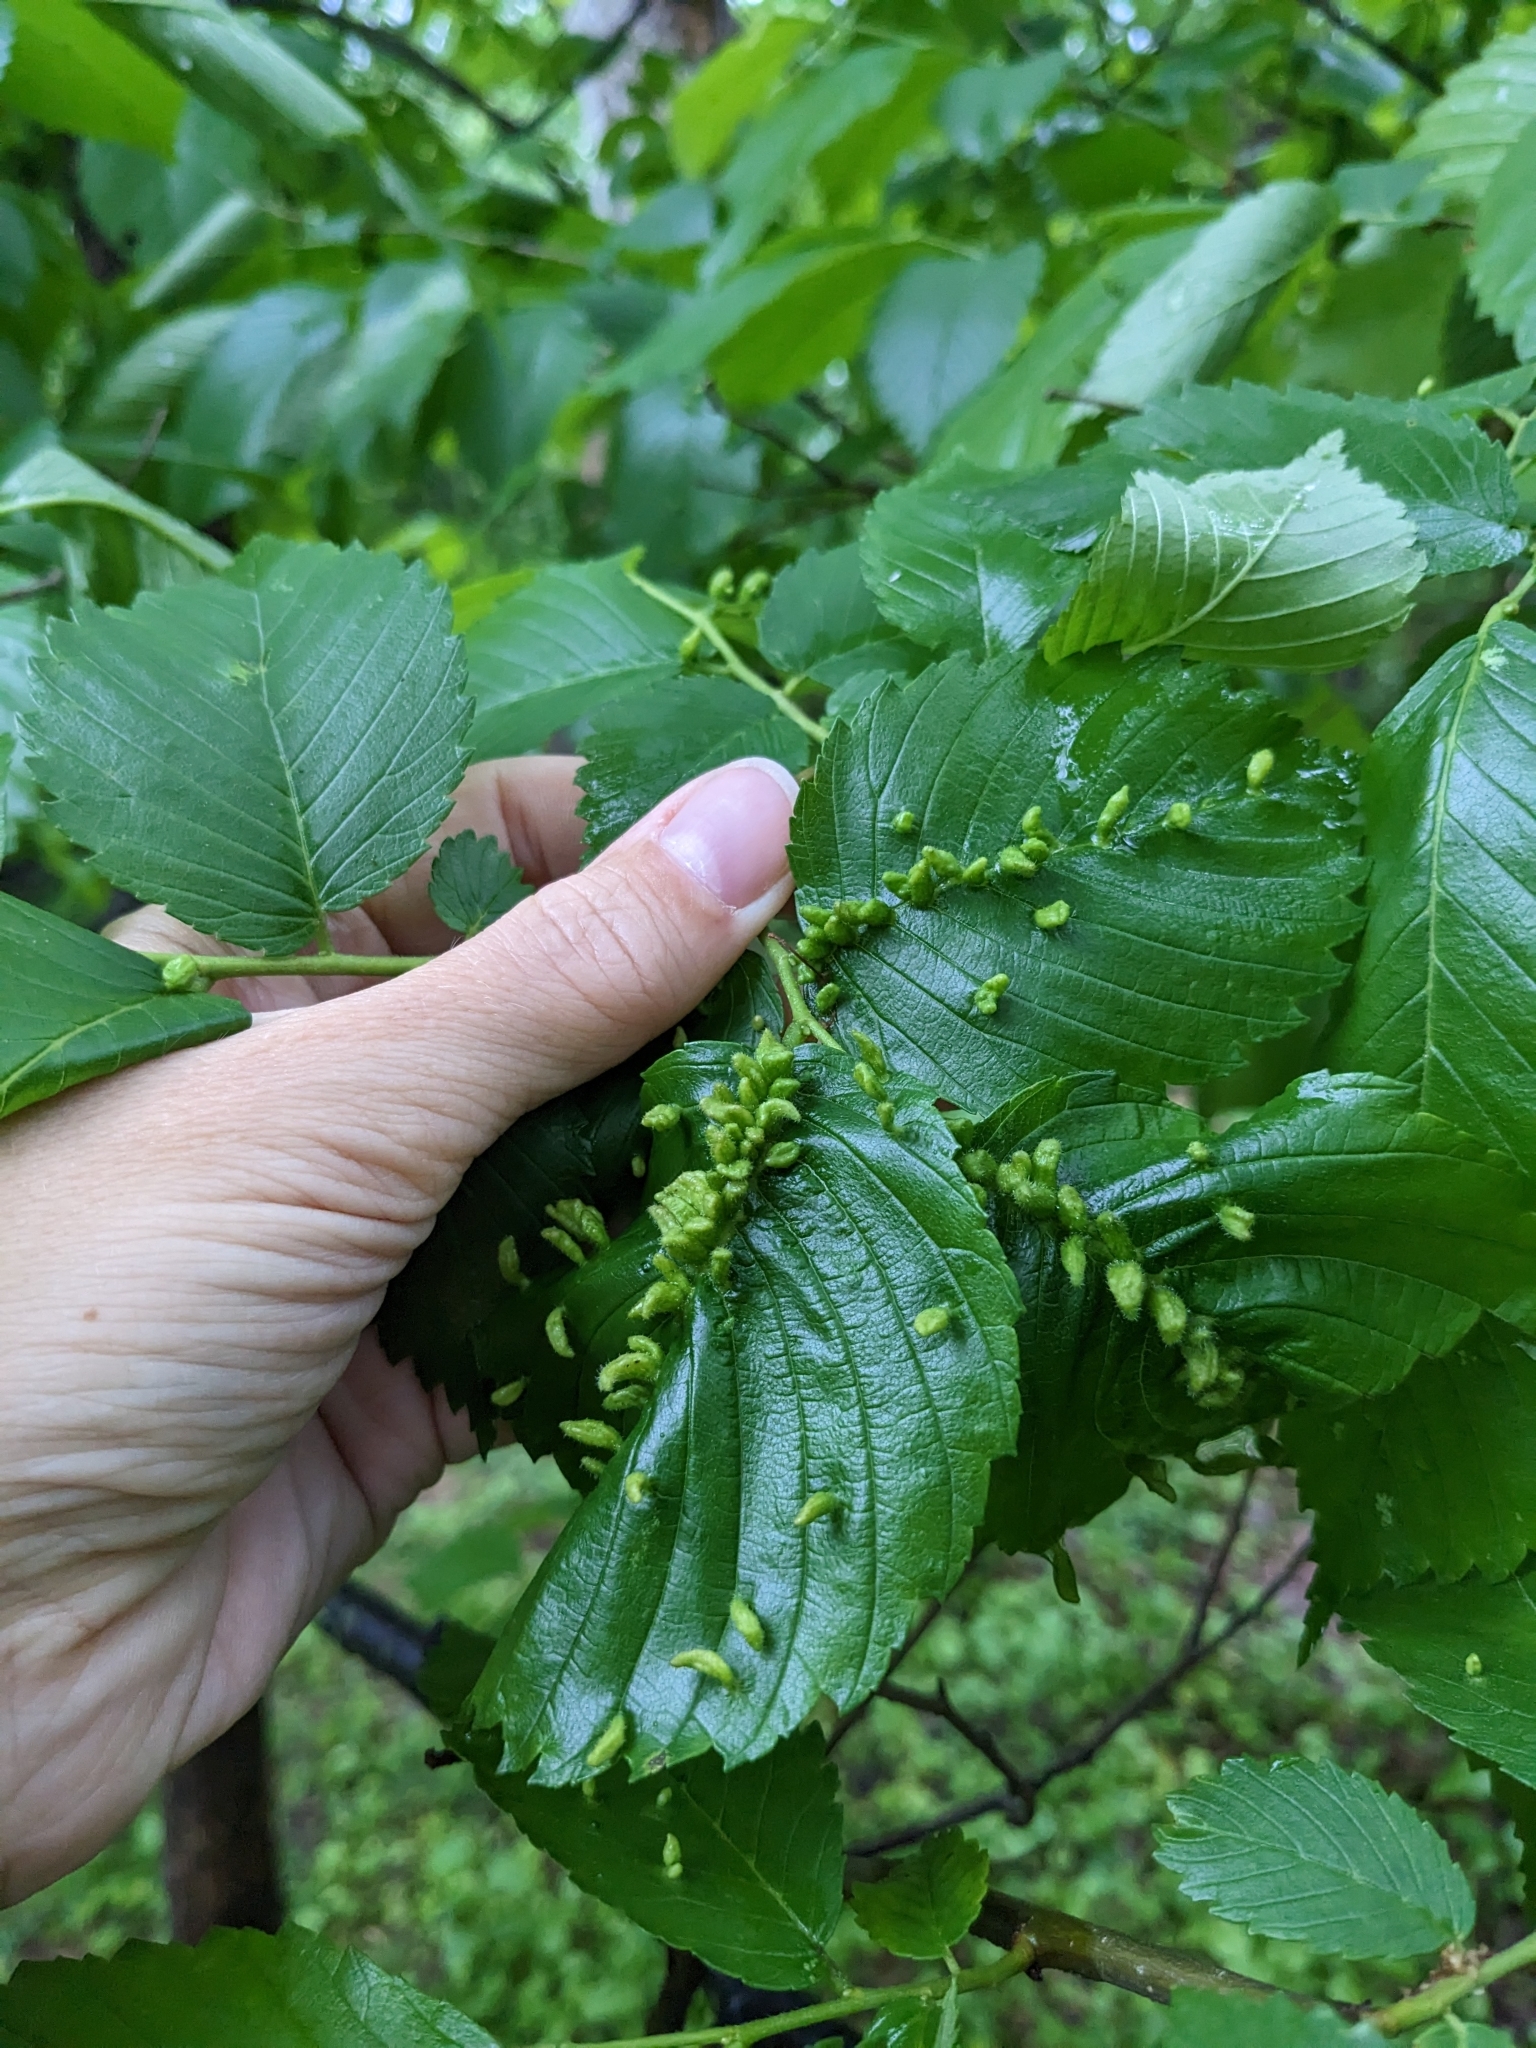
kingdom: Animalia
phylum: Arthropoda
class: Arachnida
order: Trombidiformes
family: Eriophyidae
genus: Aceria
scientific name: Aceria
